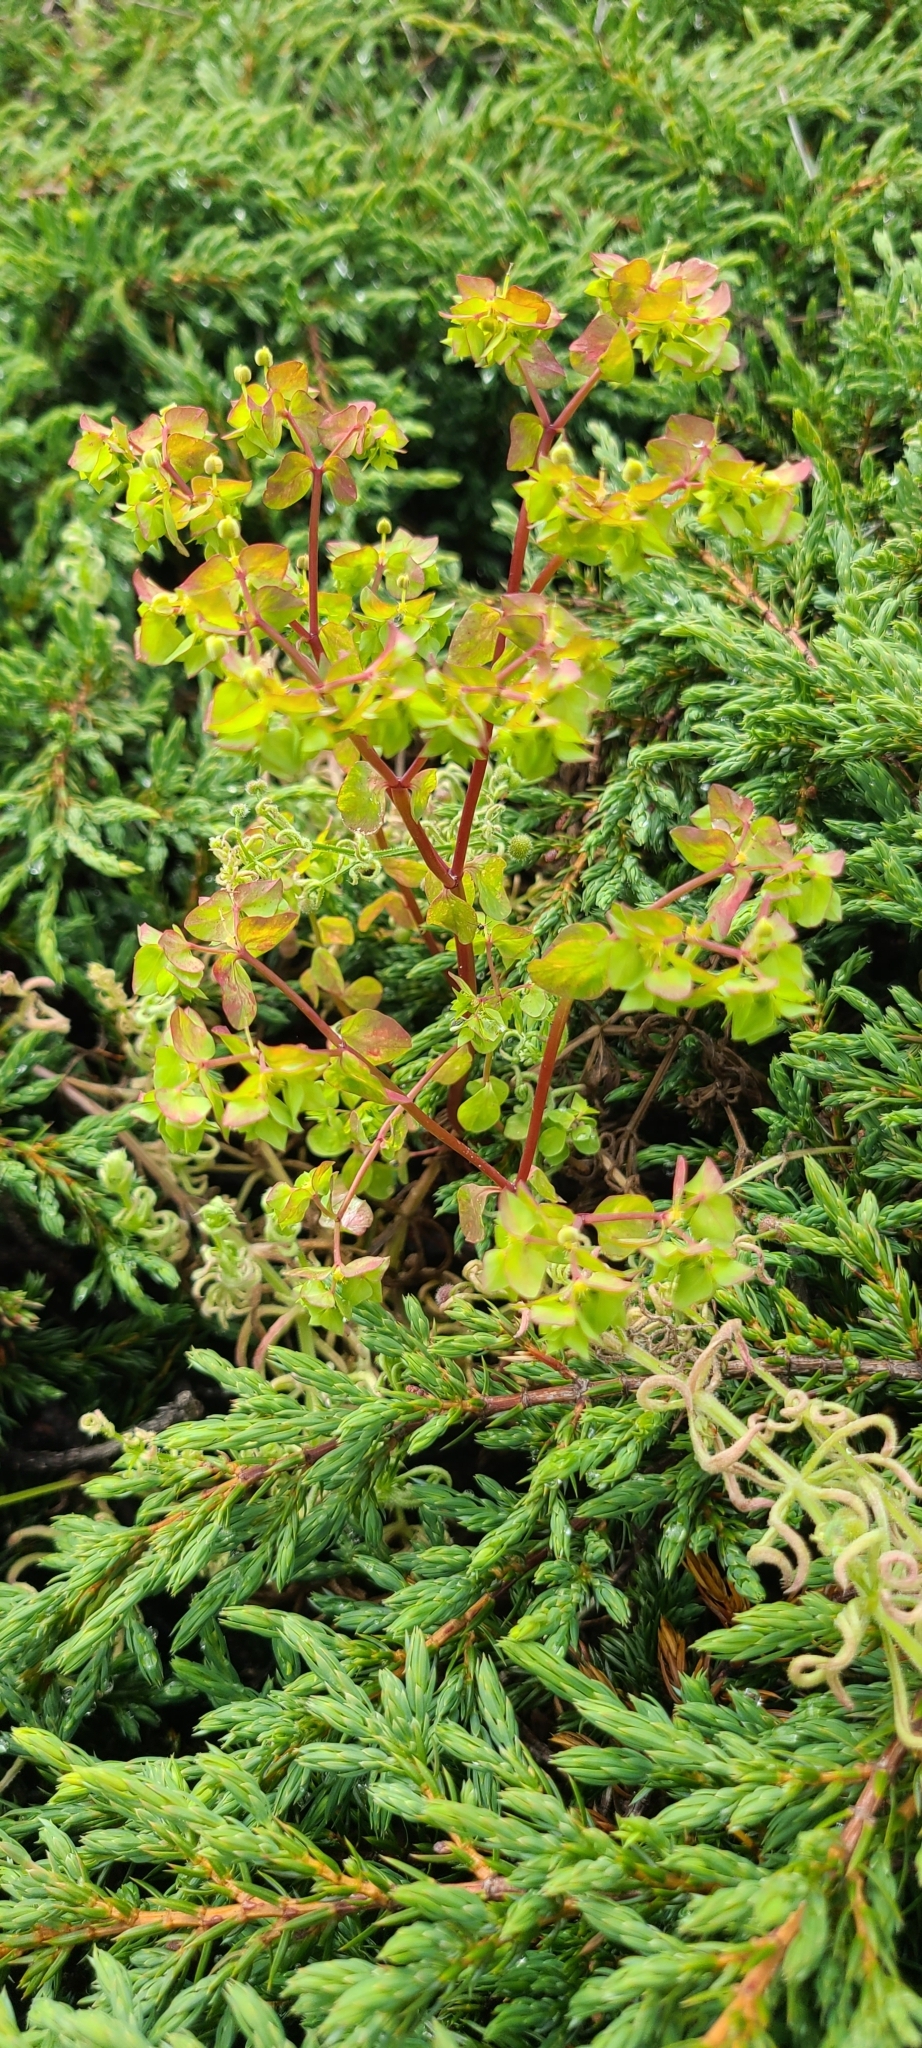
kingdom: Plantae
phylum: Tracheophyta
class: Magnoliopsida
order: Malpighiales
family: Euphorbiaceae
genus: Euphorbia
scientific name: Euphorbia peplus
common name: Petty spurge
